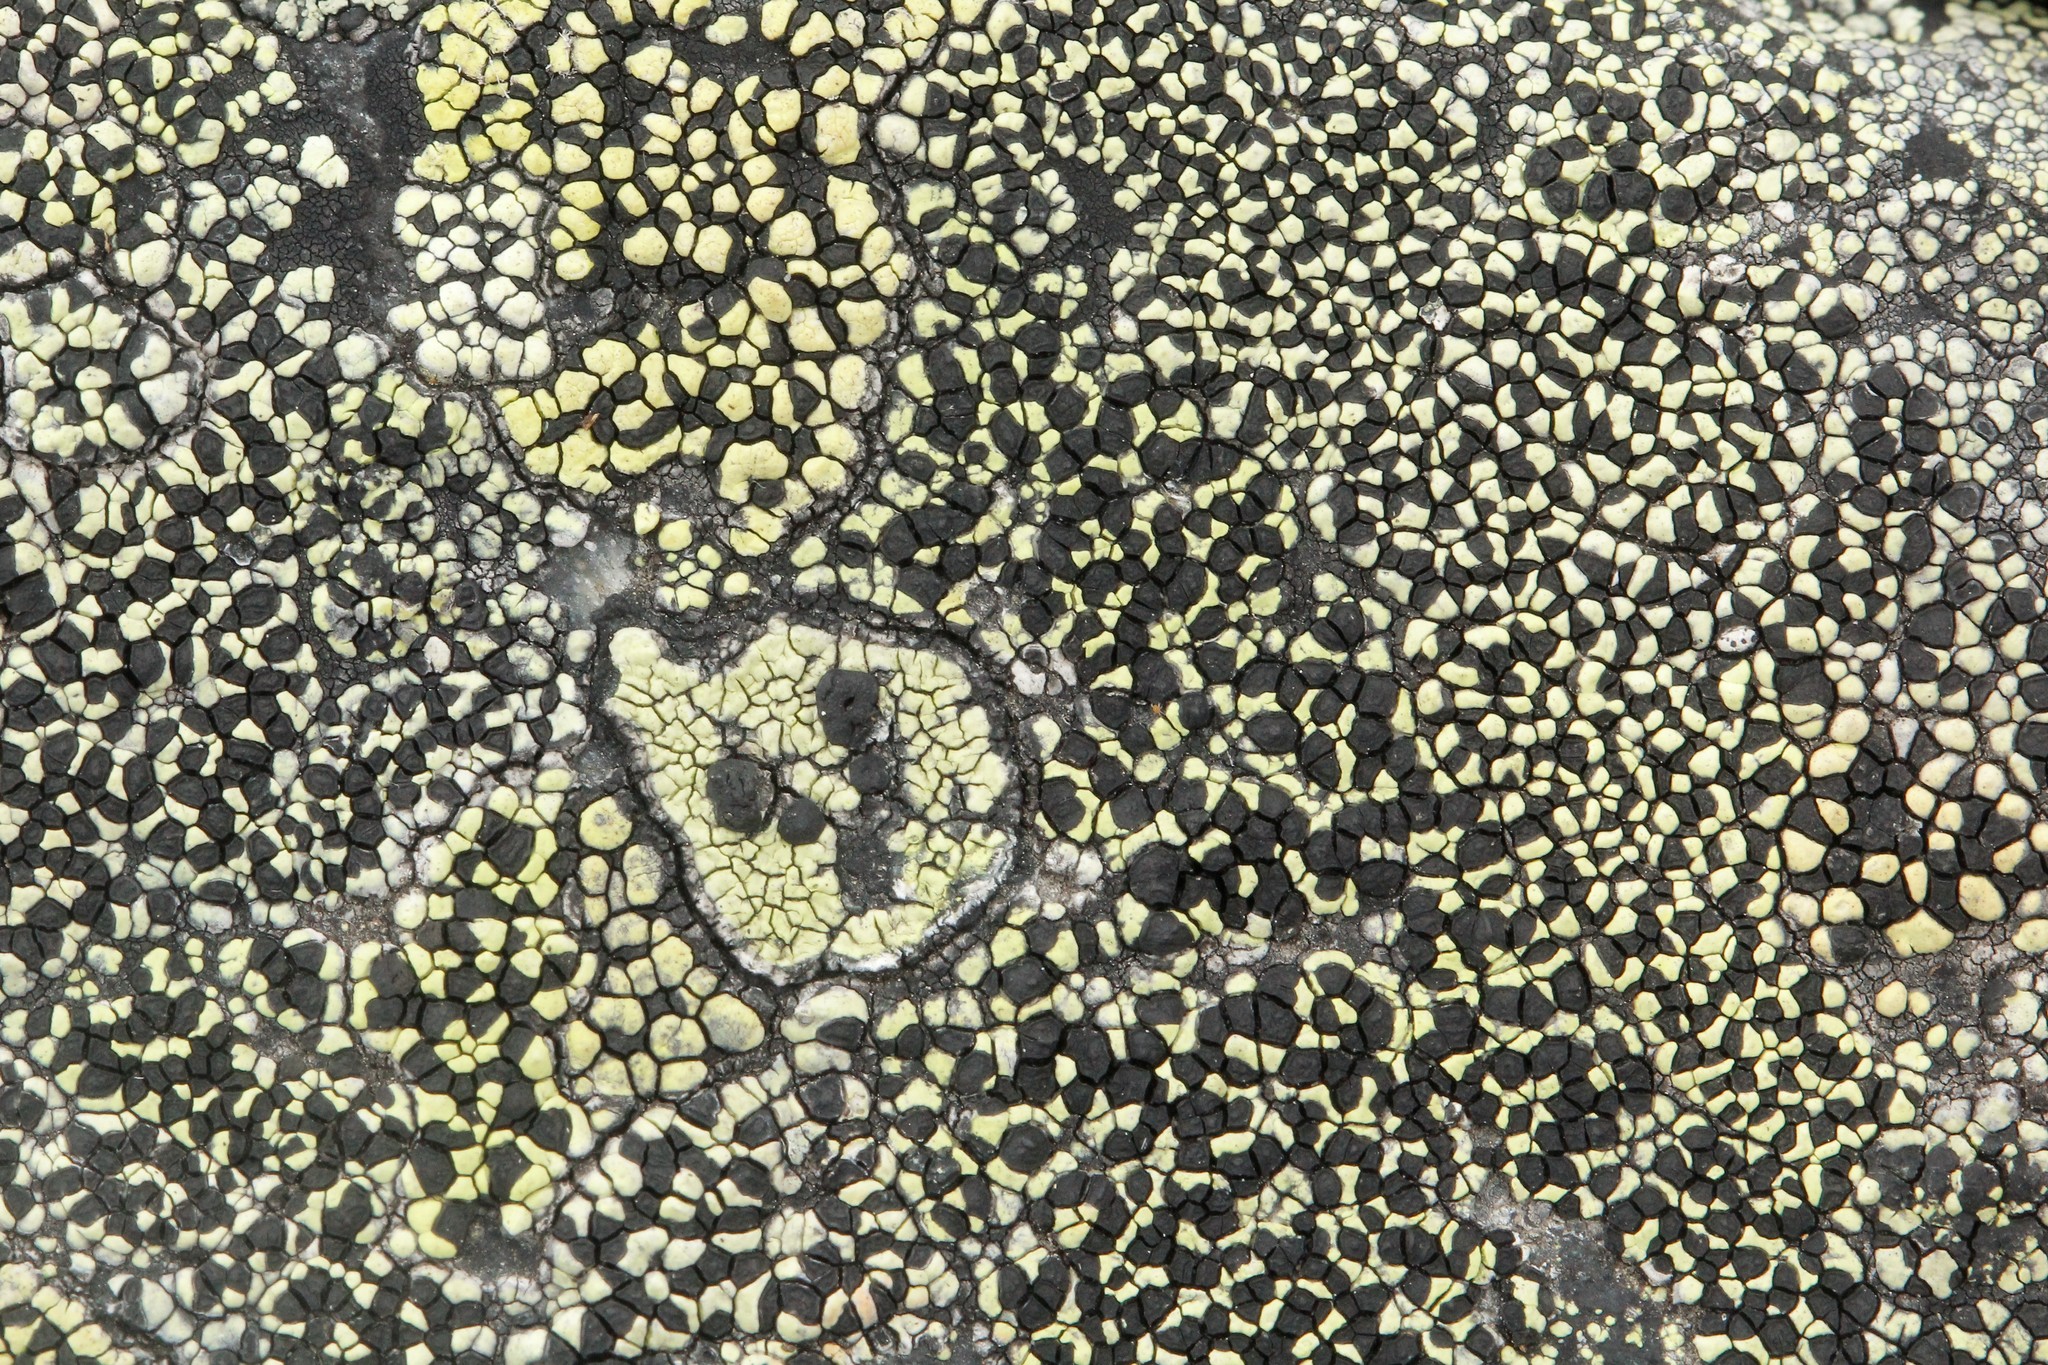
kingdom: Fungi
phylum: Ascomycota
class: Lecanoromycetes
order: Rhizocarpales
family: Rhizocarpaceae
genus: Rhizocarpon
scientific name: Rhizocarpon geographicum
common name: Yellow map lichen
